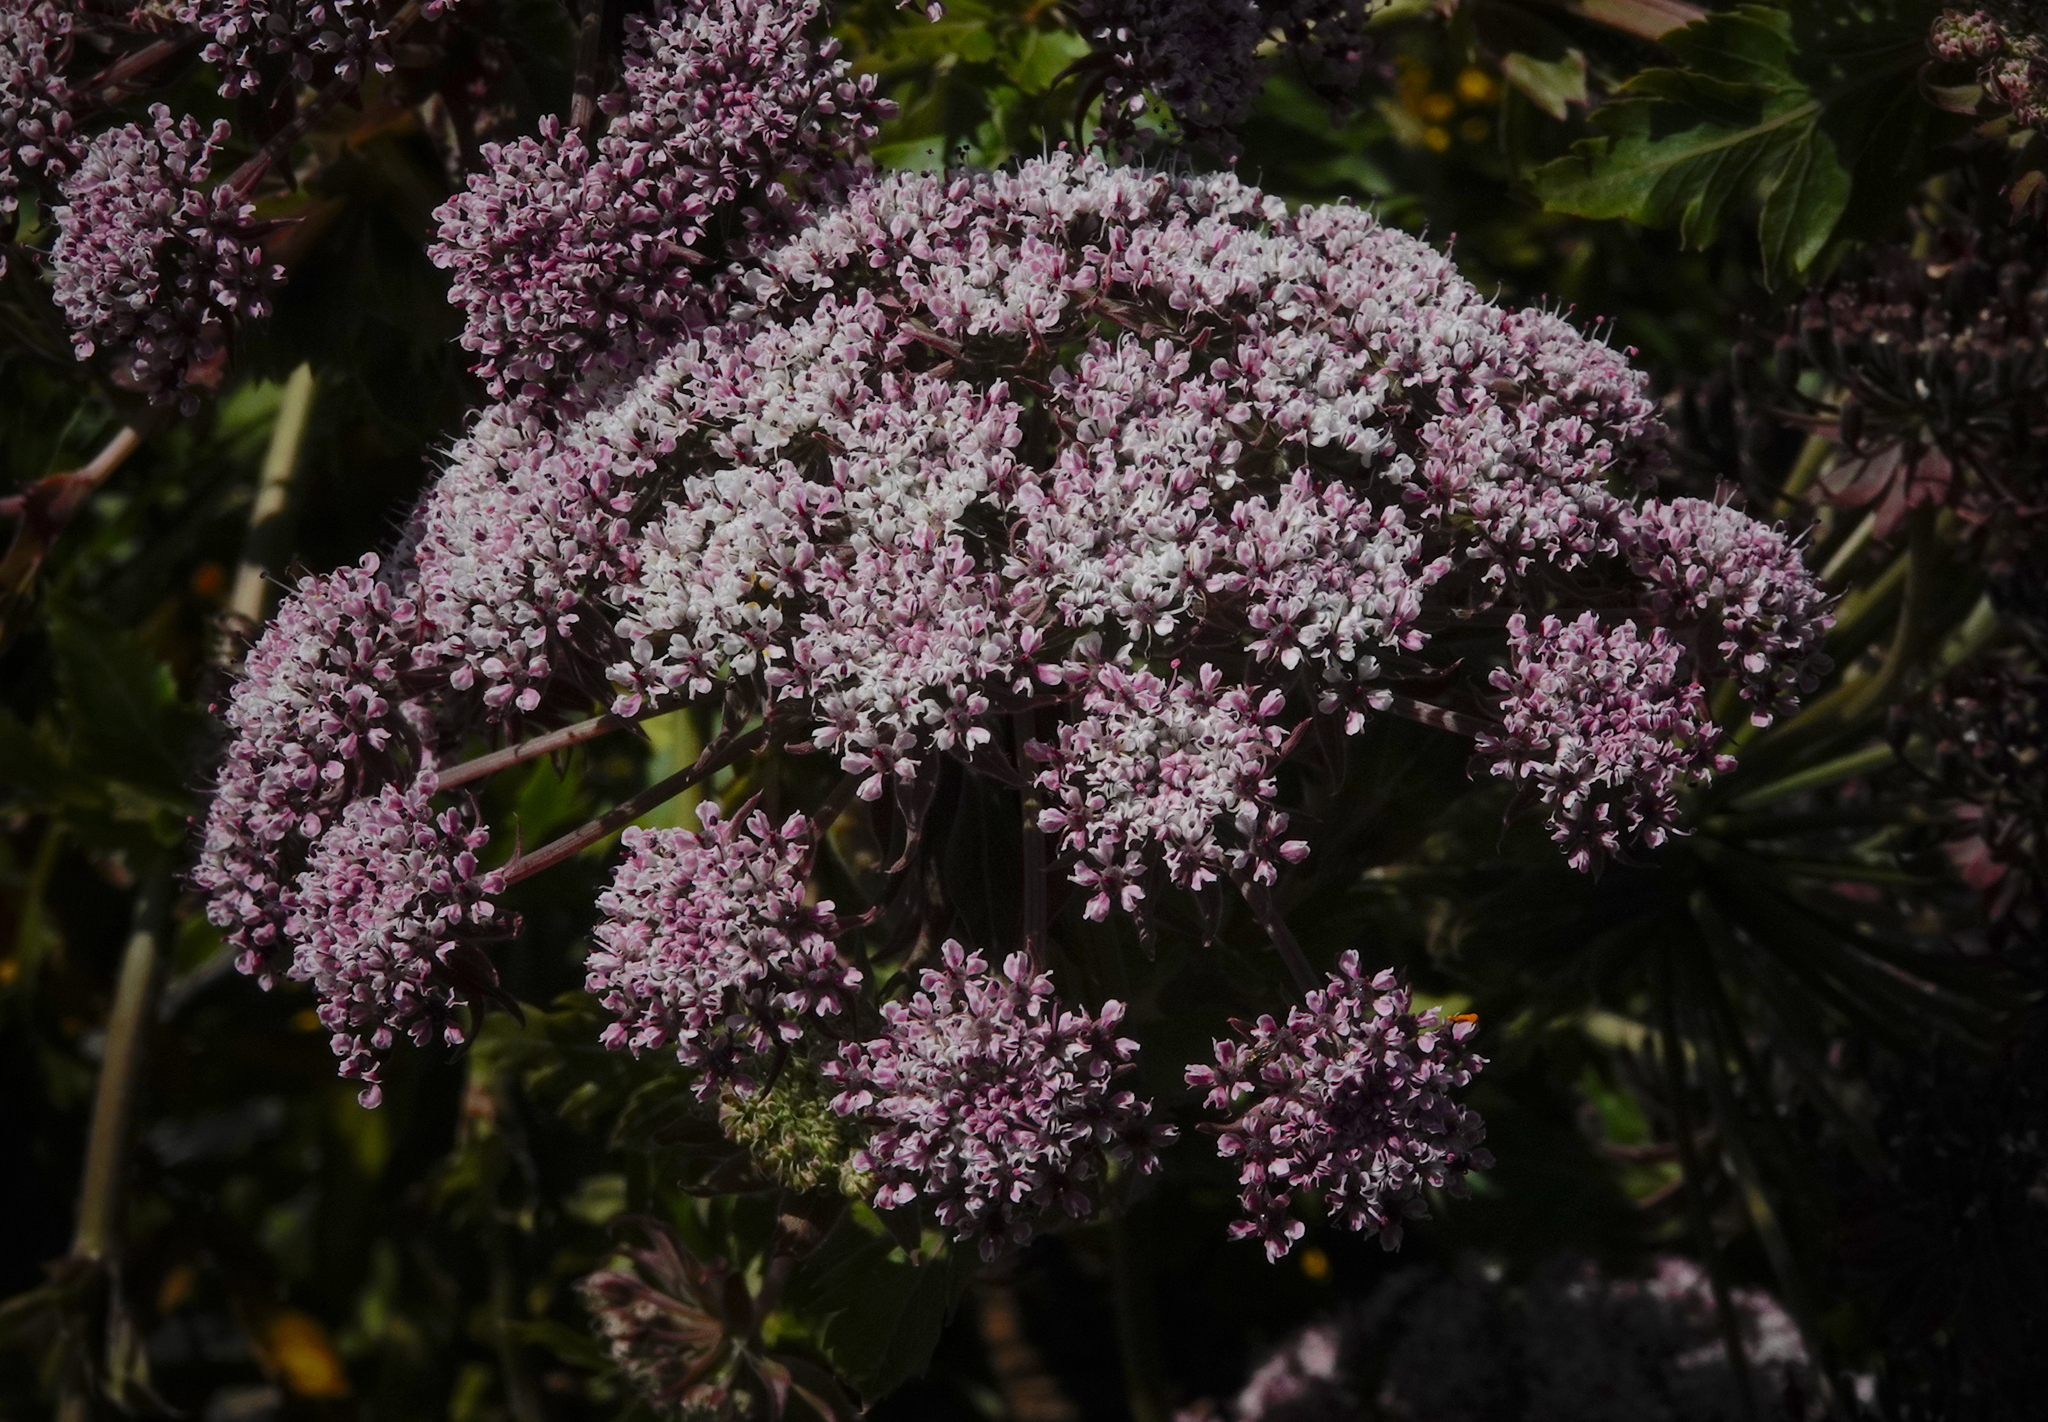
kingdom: Plantae
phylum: Tracheophyta
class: Magnoliopsida
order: Apiales
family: Apiaceae
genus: Daucus
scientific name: Daucus decipiens
